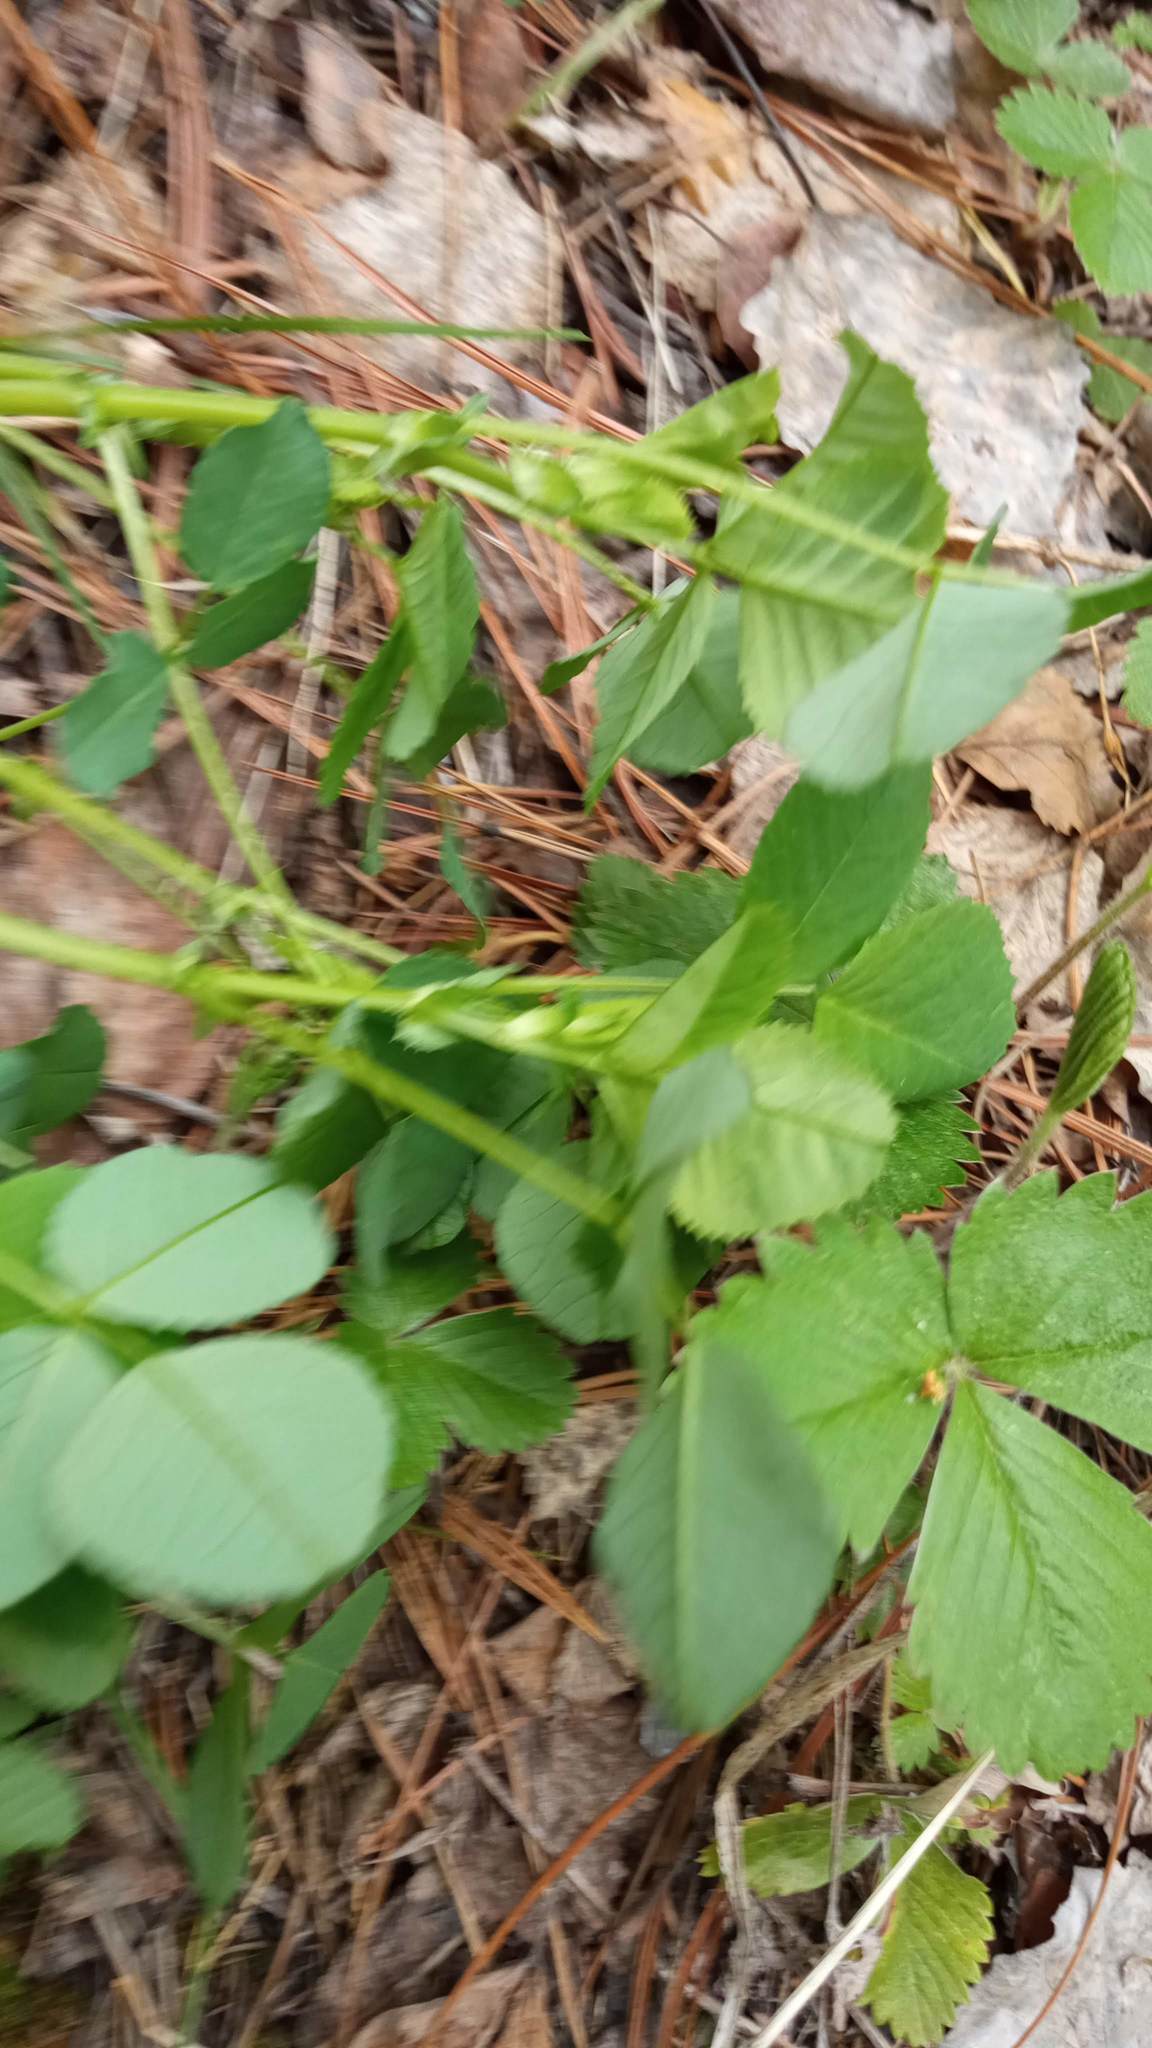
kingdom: Plantae
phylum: Tracheophyta
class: Magnoliopsida
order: Fabales
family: Fabaceae
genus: Medicago
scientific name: Medicago lupulina
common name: Black medick
